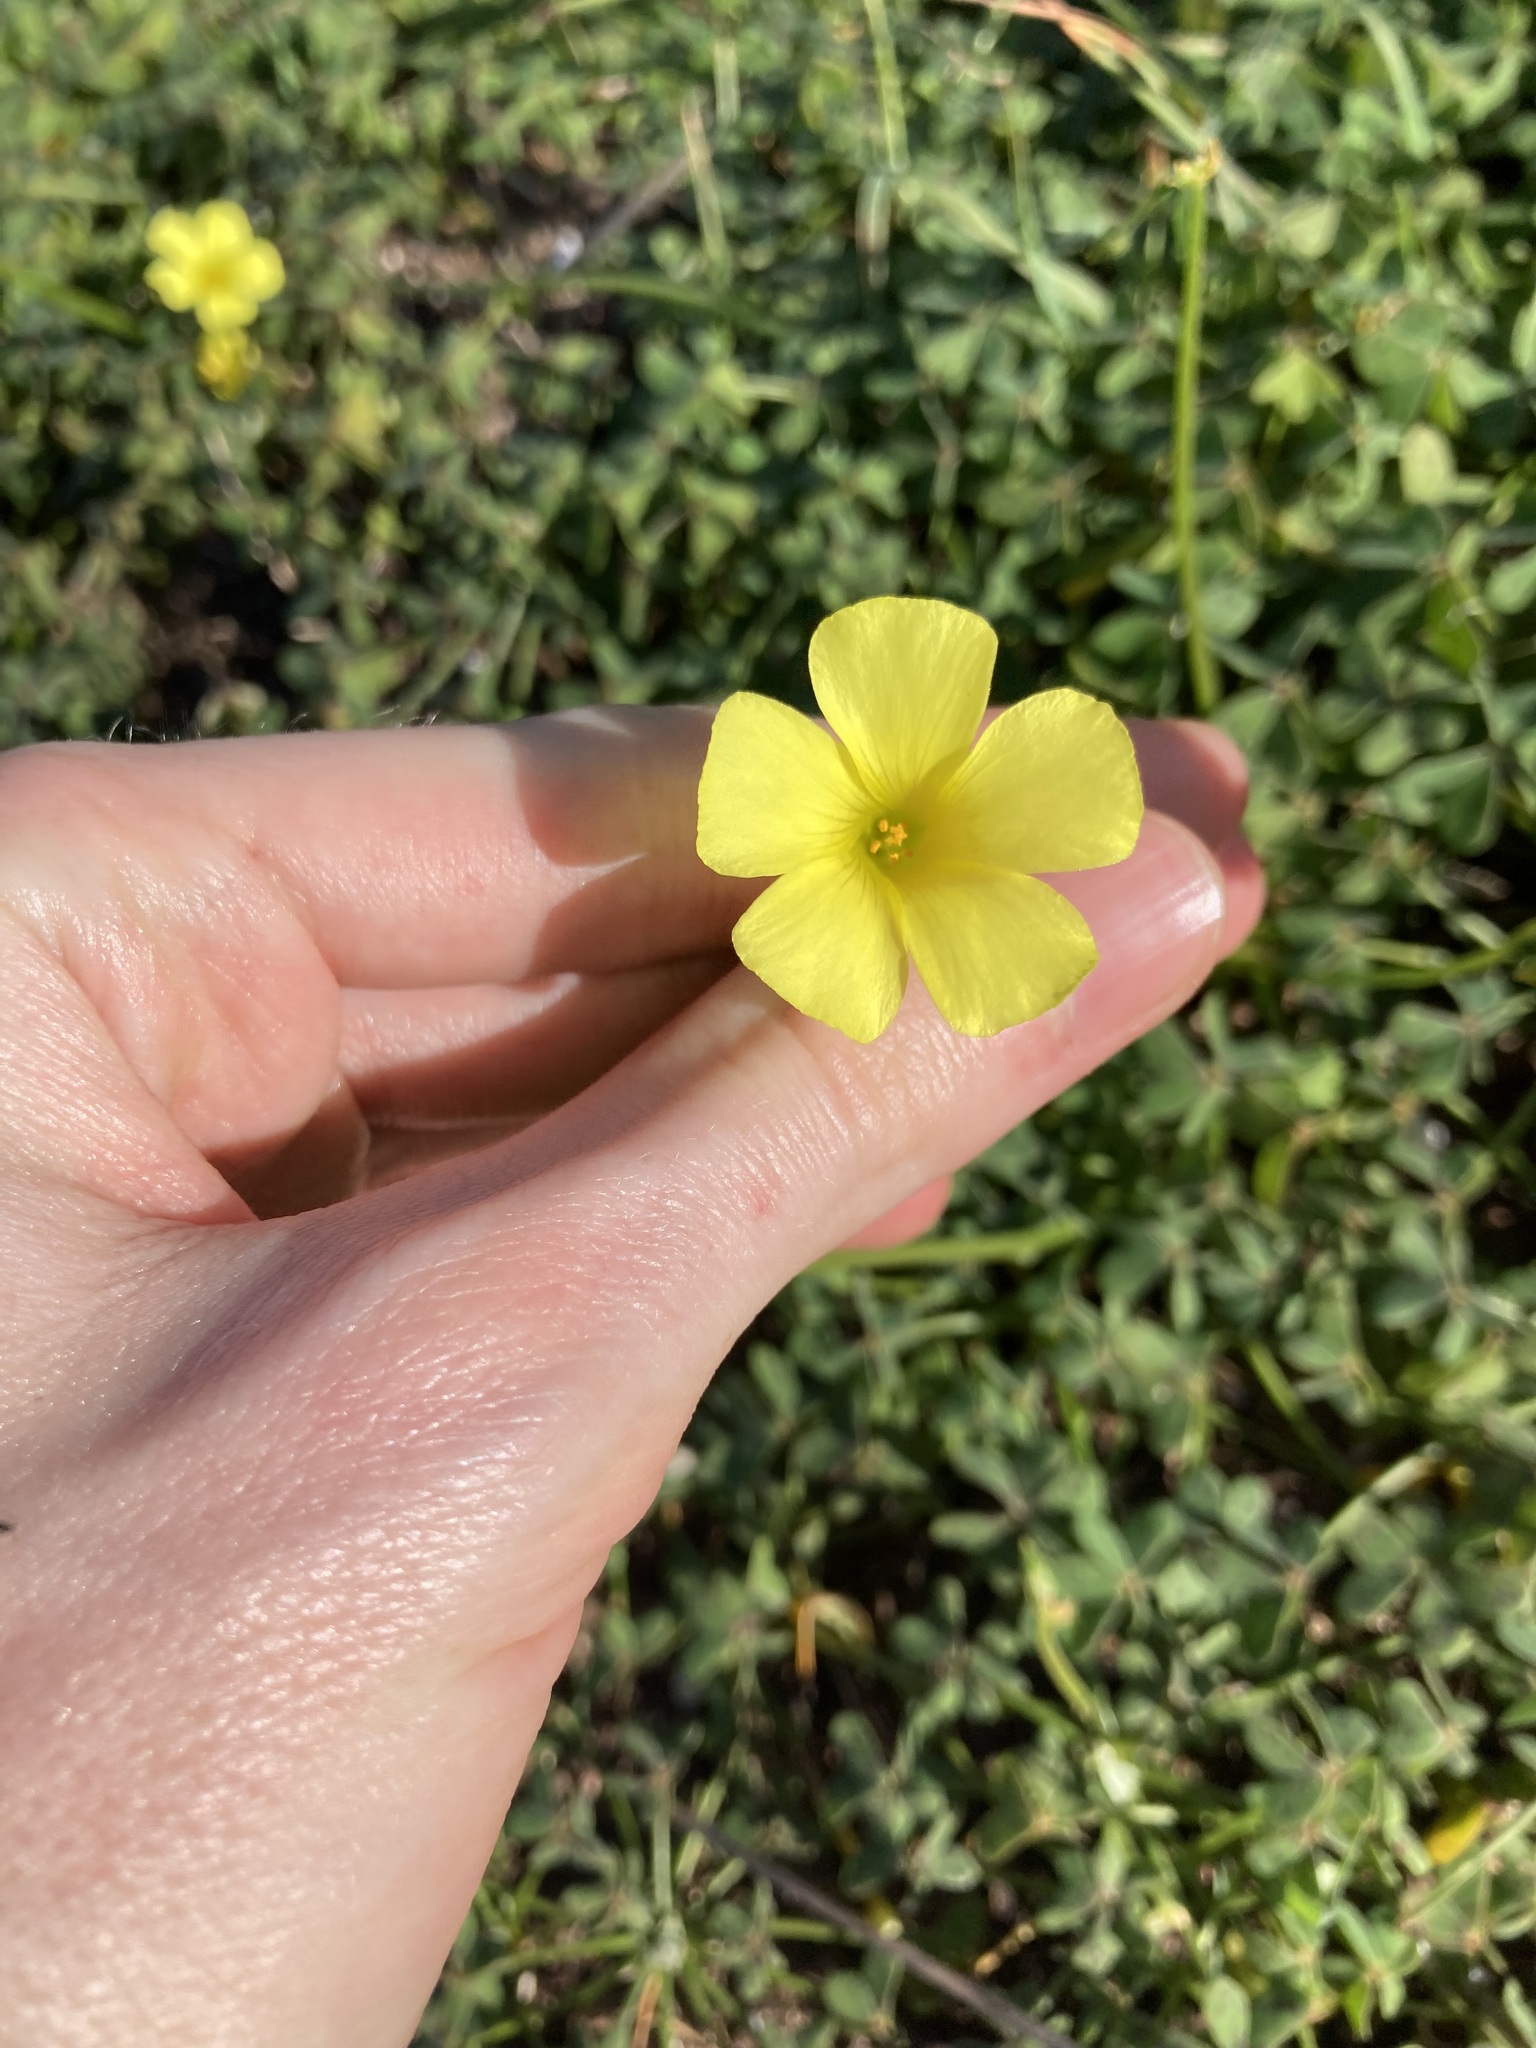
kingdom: Plantae
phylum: Tracheophyta
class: Magnoliopsida
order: Oxalidales
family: Oxalidaceae
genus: Oxalis
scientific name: Oxalis pes-caprae
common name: Bermuda-buttercup
